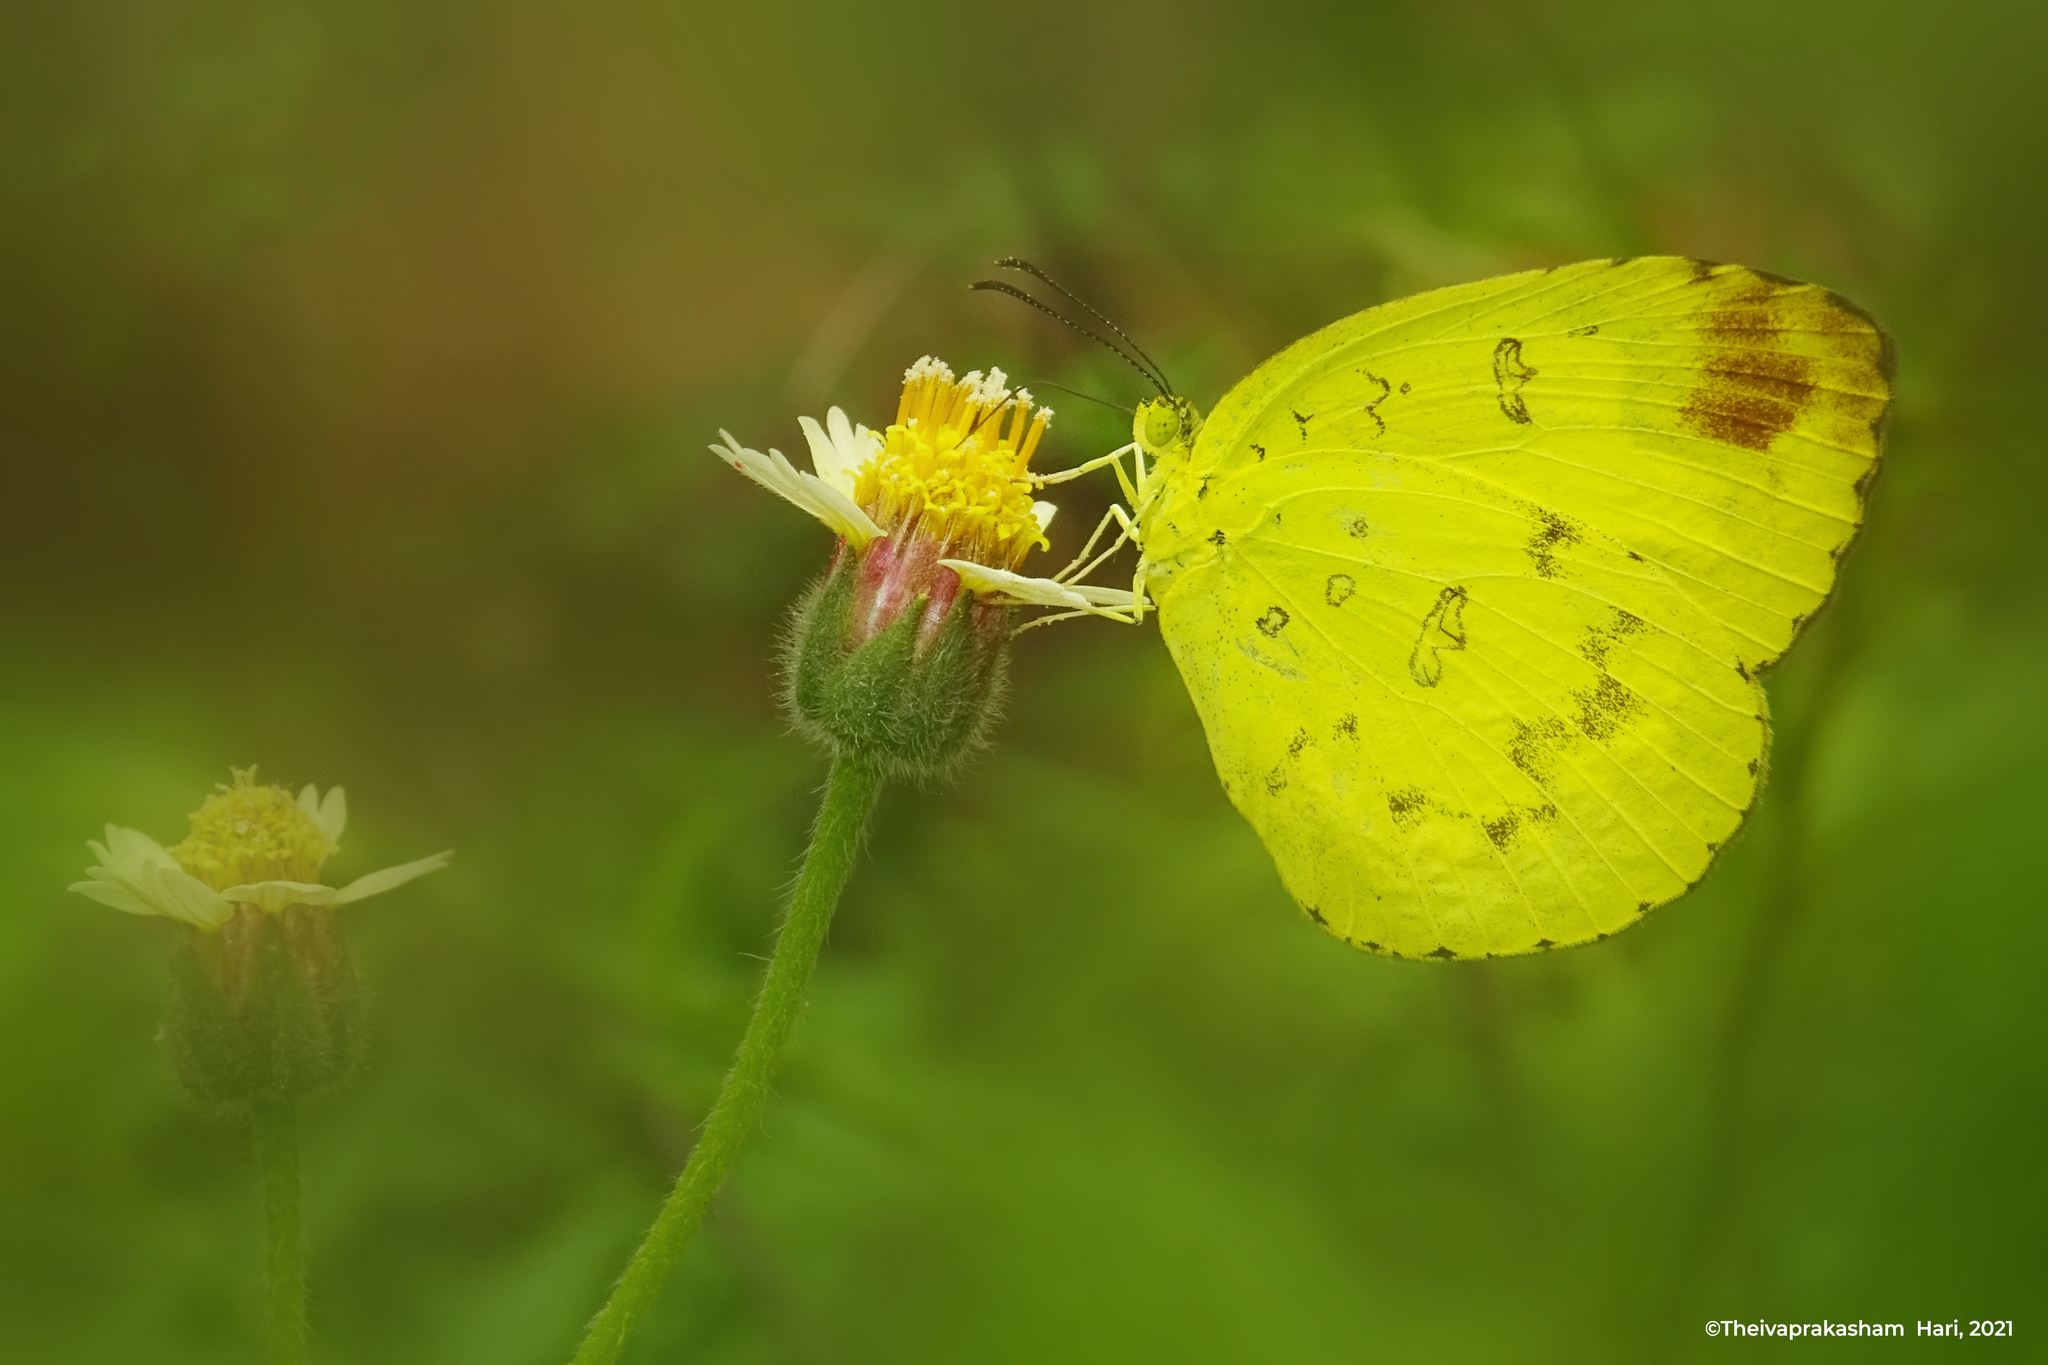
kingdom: Animalia
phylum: Arthropoda
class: Insecta
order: Lepidoptera
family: Pieridae
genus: Eurema
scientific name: Eurema blanda
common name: Three-spot grass yellow
